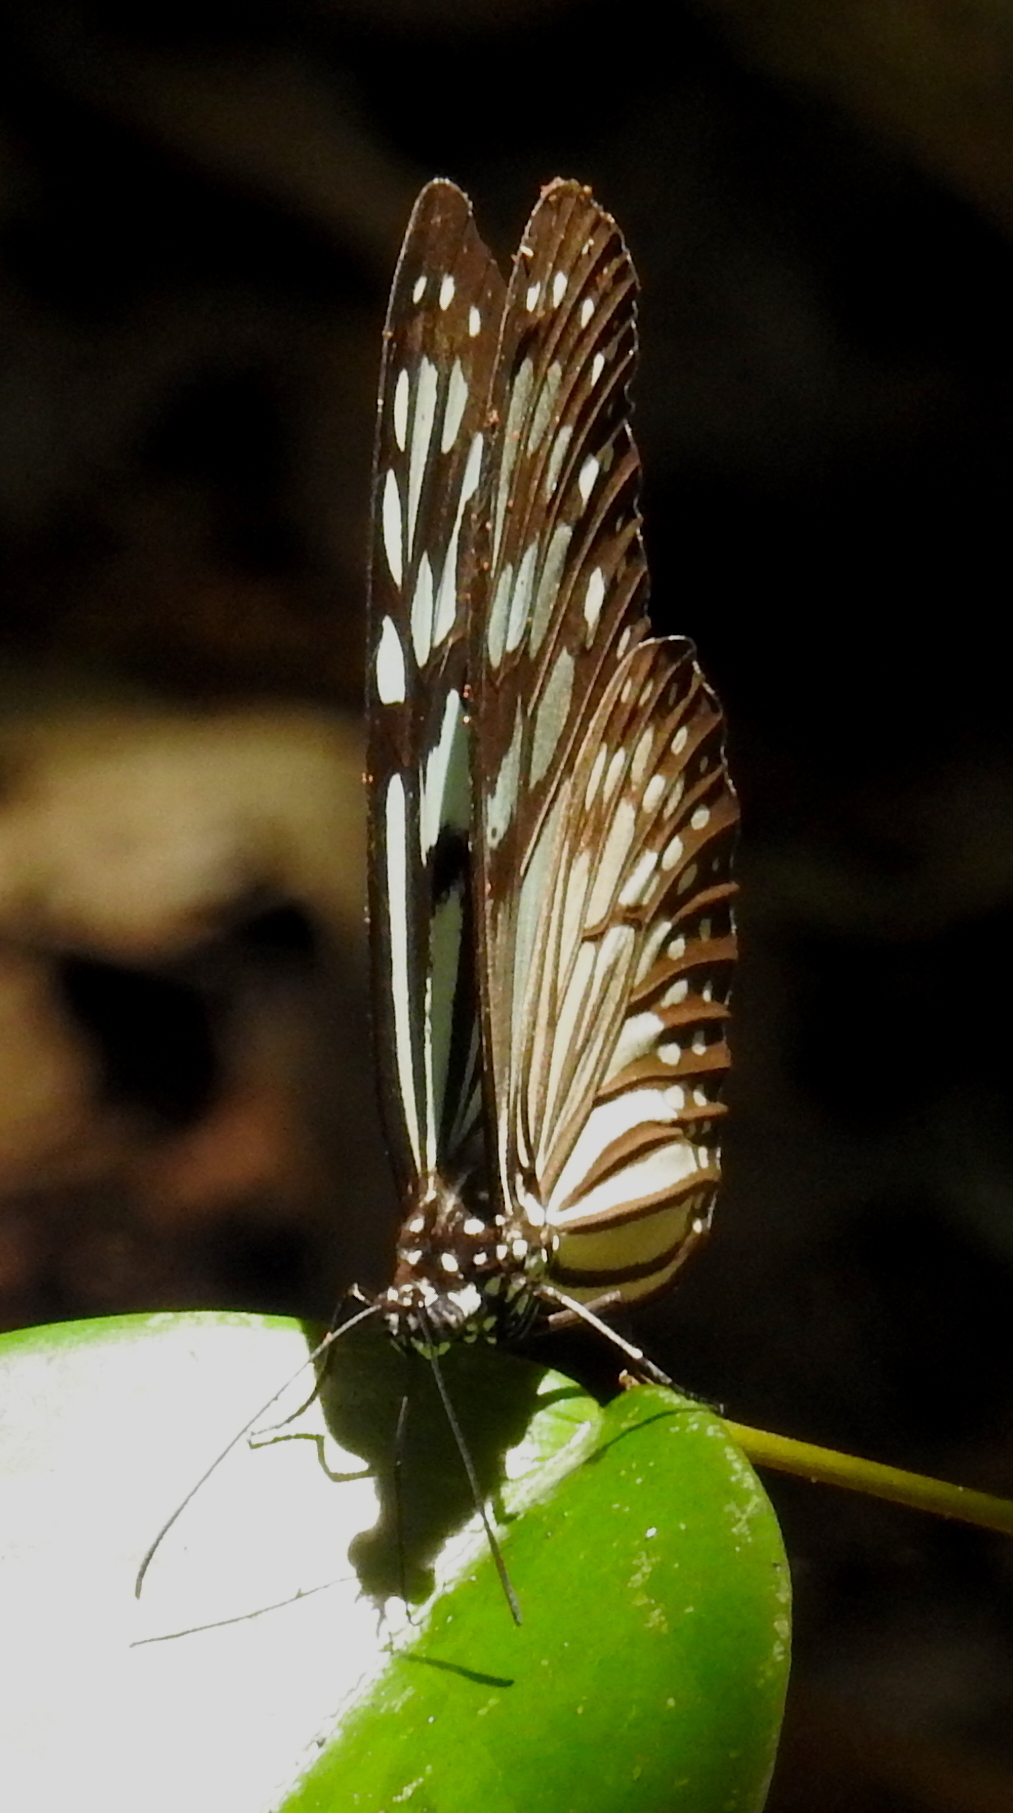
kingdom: Animalia
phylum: Arthropoda
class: Insecta
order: Lepidoptera
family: Nymphalidae
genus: Ideopsis
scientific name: Ideopsis similis
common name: Ceylon blue glassy tiger
